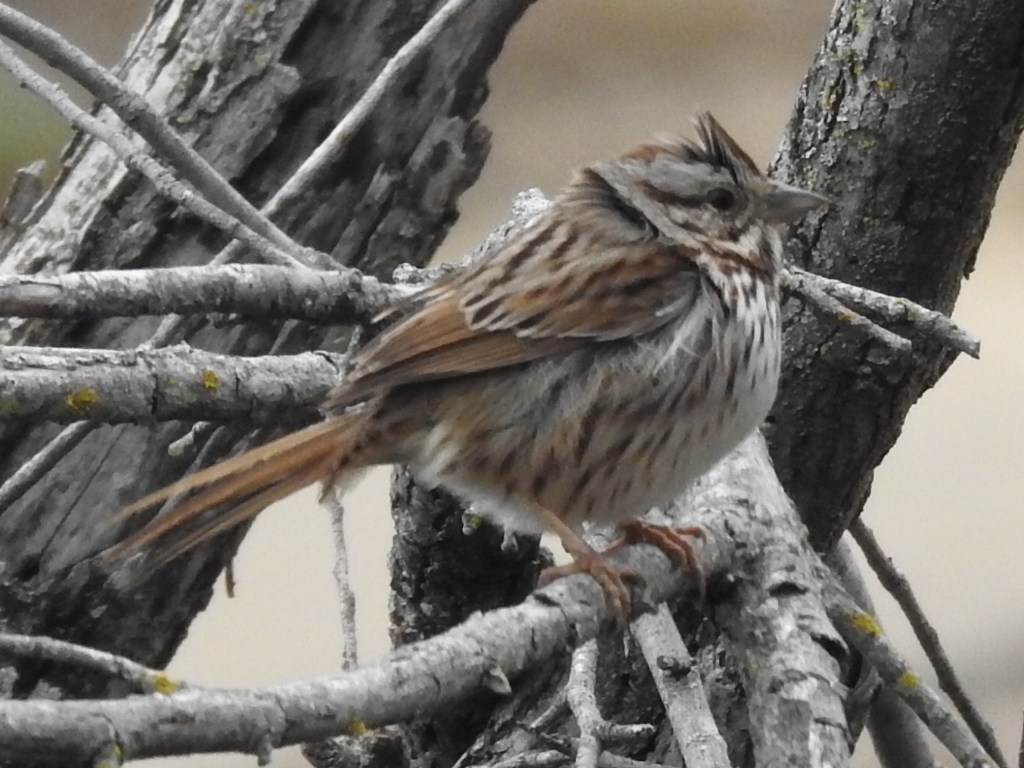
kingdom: Animalia
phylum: Chordata
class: Aves
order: Passeriformes
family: Passerellidae
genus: Melospiza
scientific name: Melospiza melodia
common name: Song sparrow
